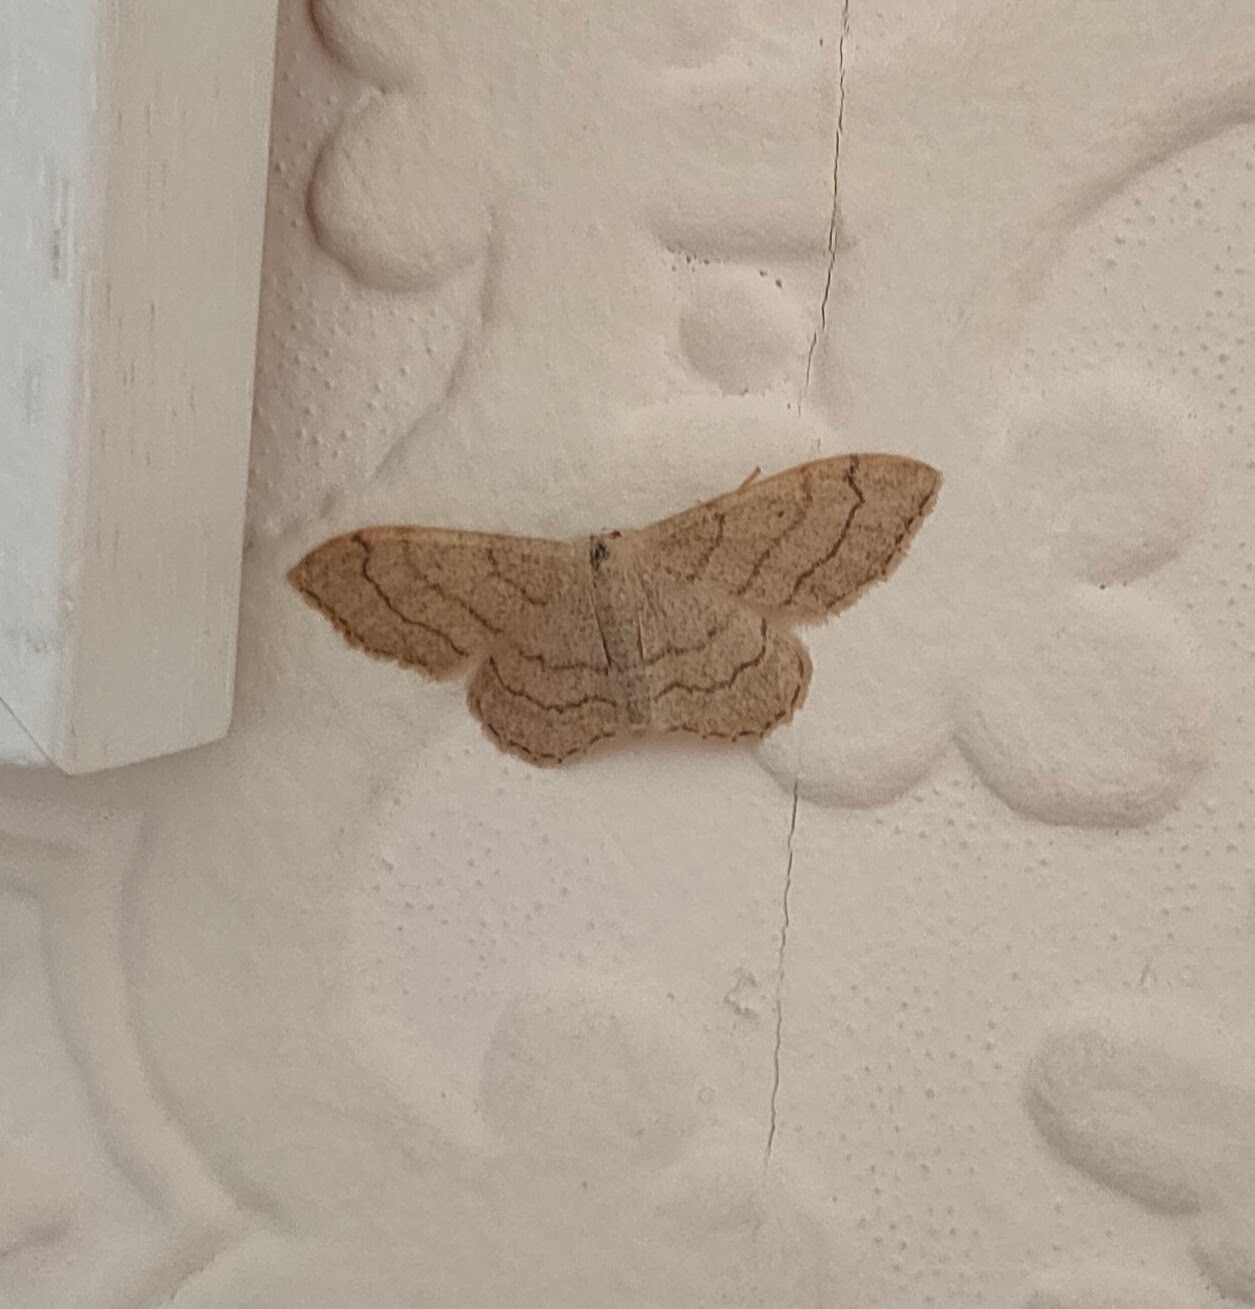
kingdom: Animalia
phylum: Arthropoda
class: Insecta
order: Lepidoptera
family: Geometridae
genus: Idaea
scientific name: Idaea aversata
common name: Riband wave
